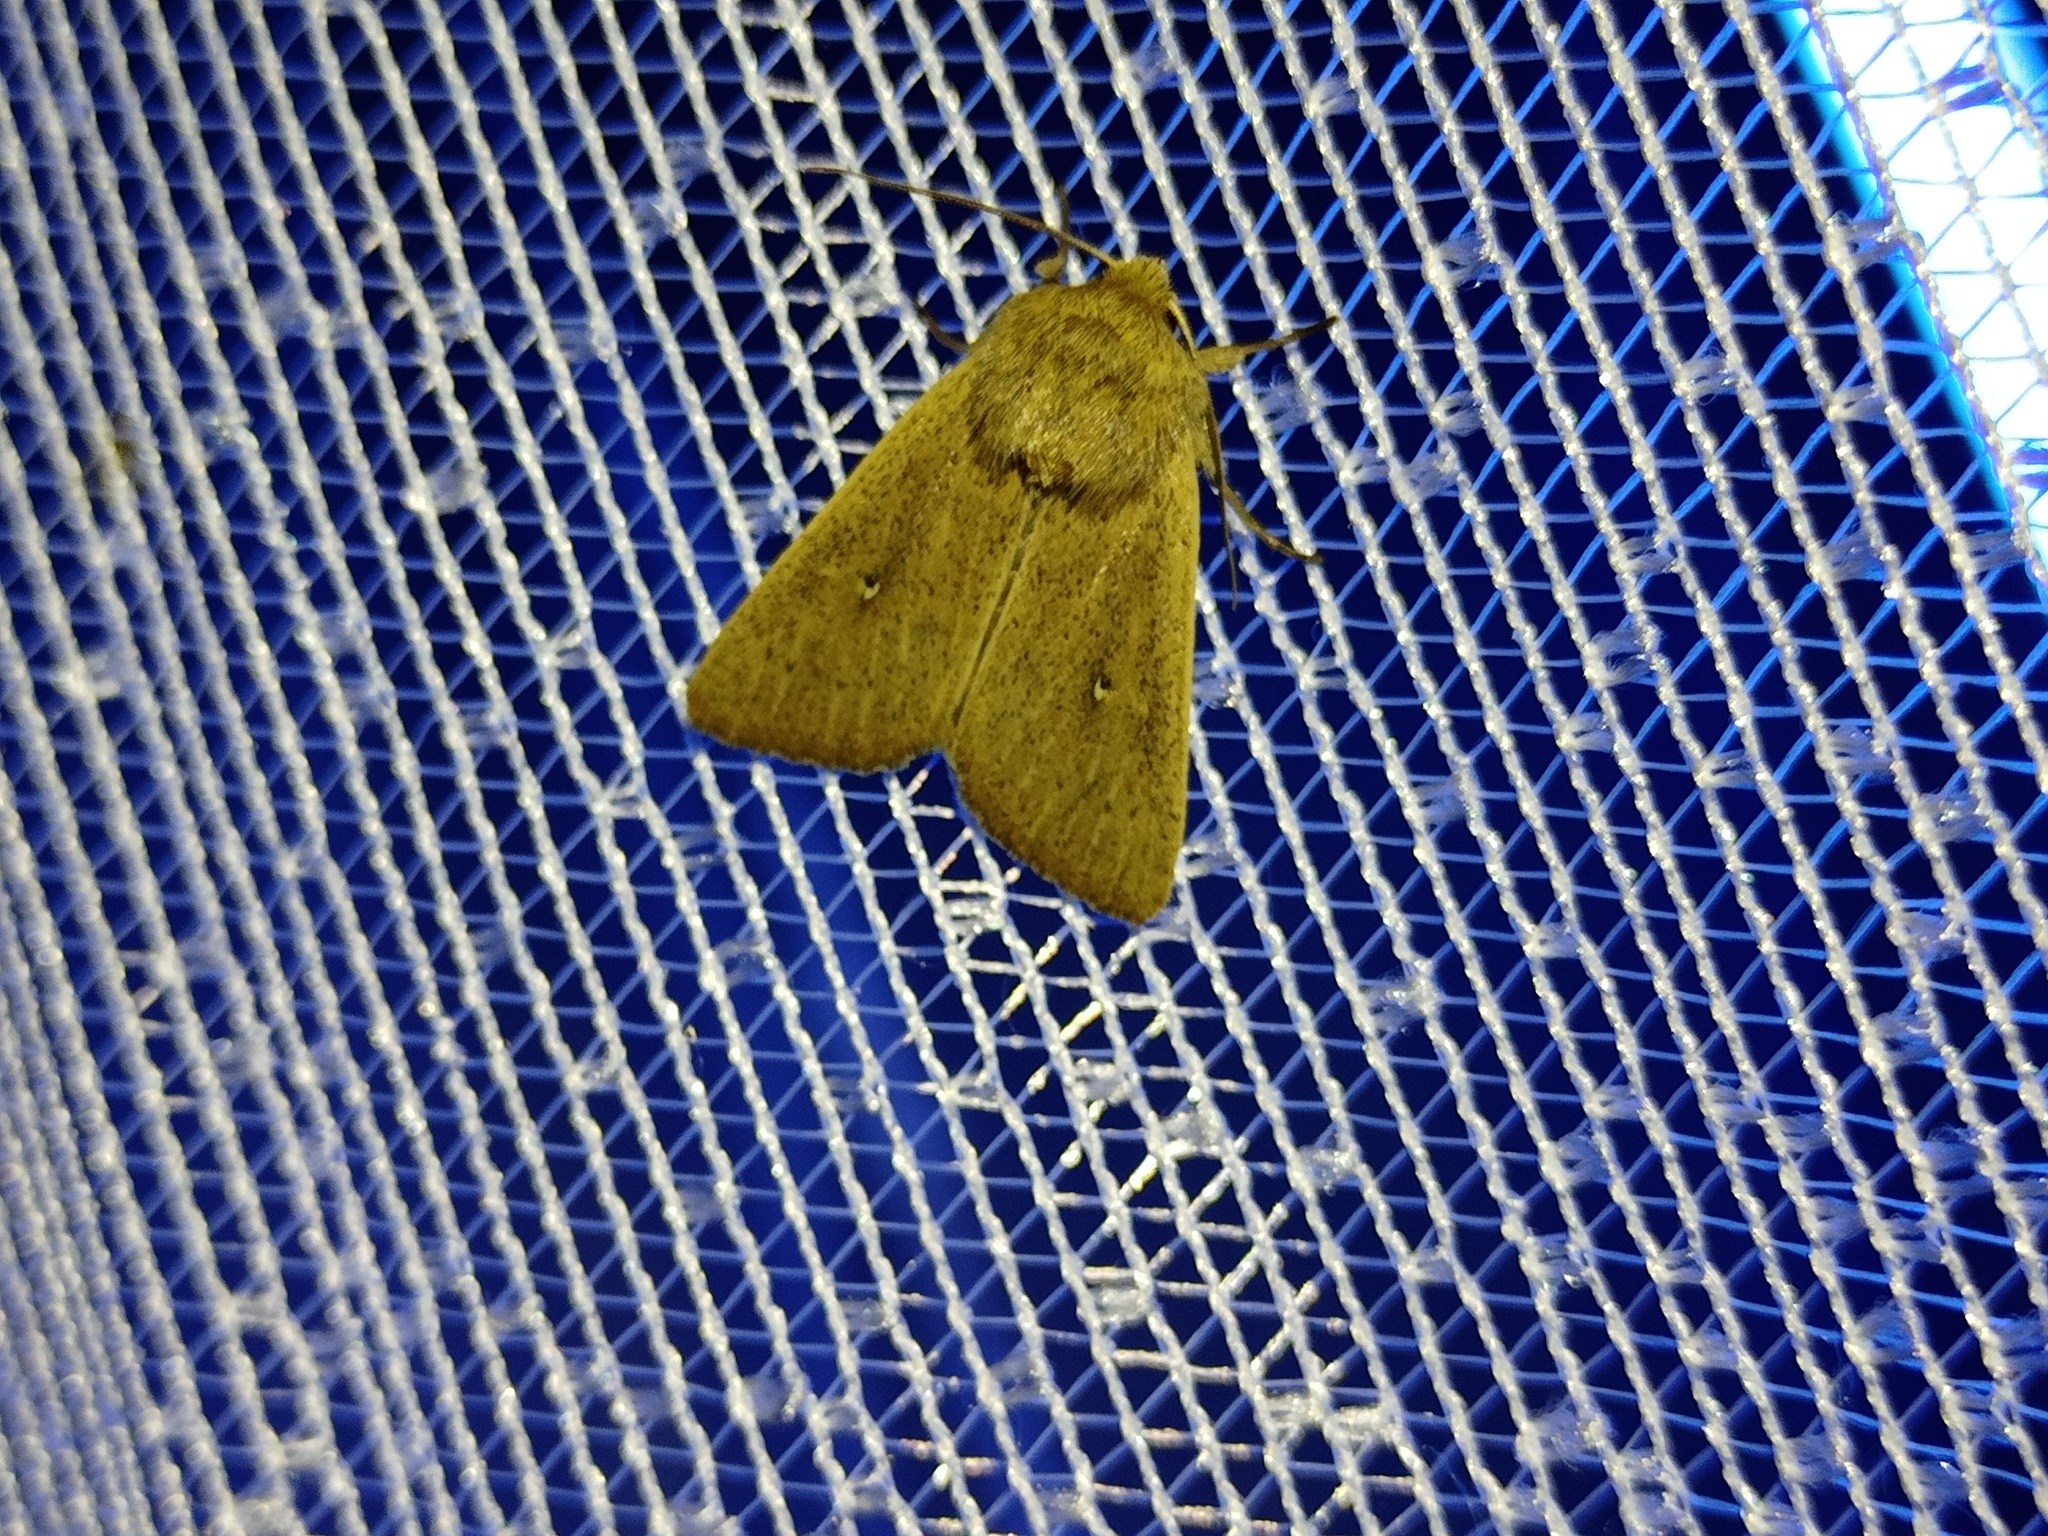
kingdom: Animalia
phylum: Arthropoda
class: Insecta
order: Lepidoptera
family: Noctuidae
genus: Mythimna
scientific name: Mythimna sicula
